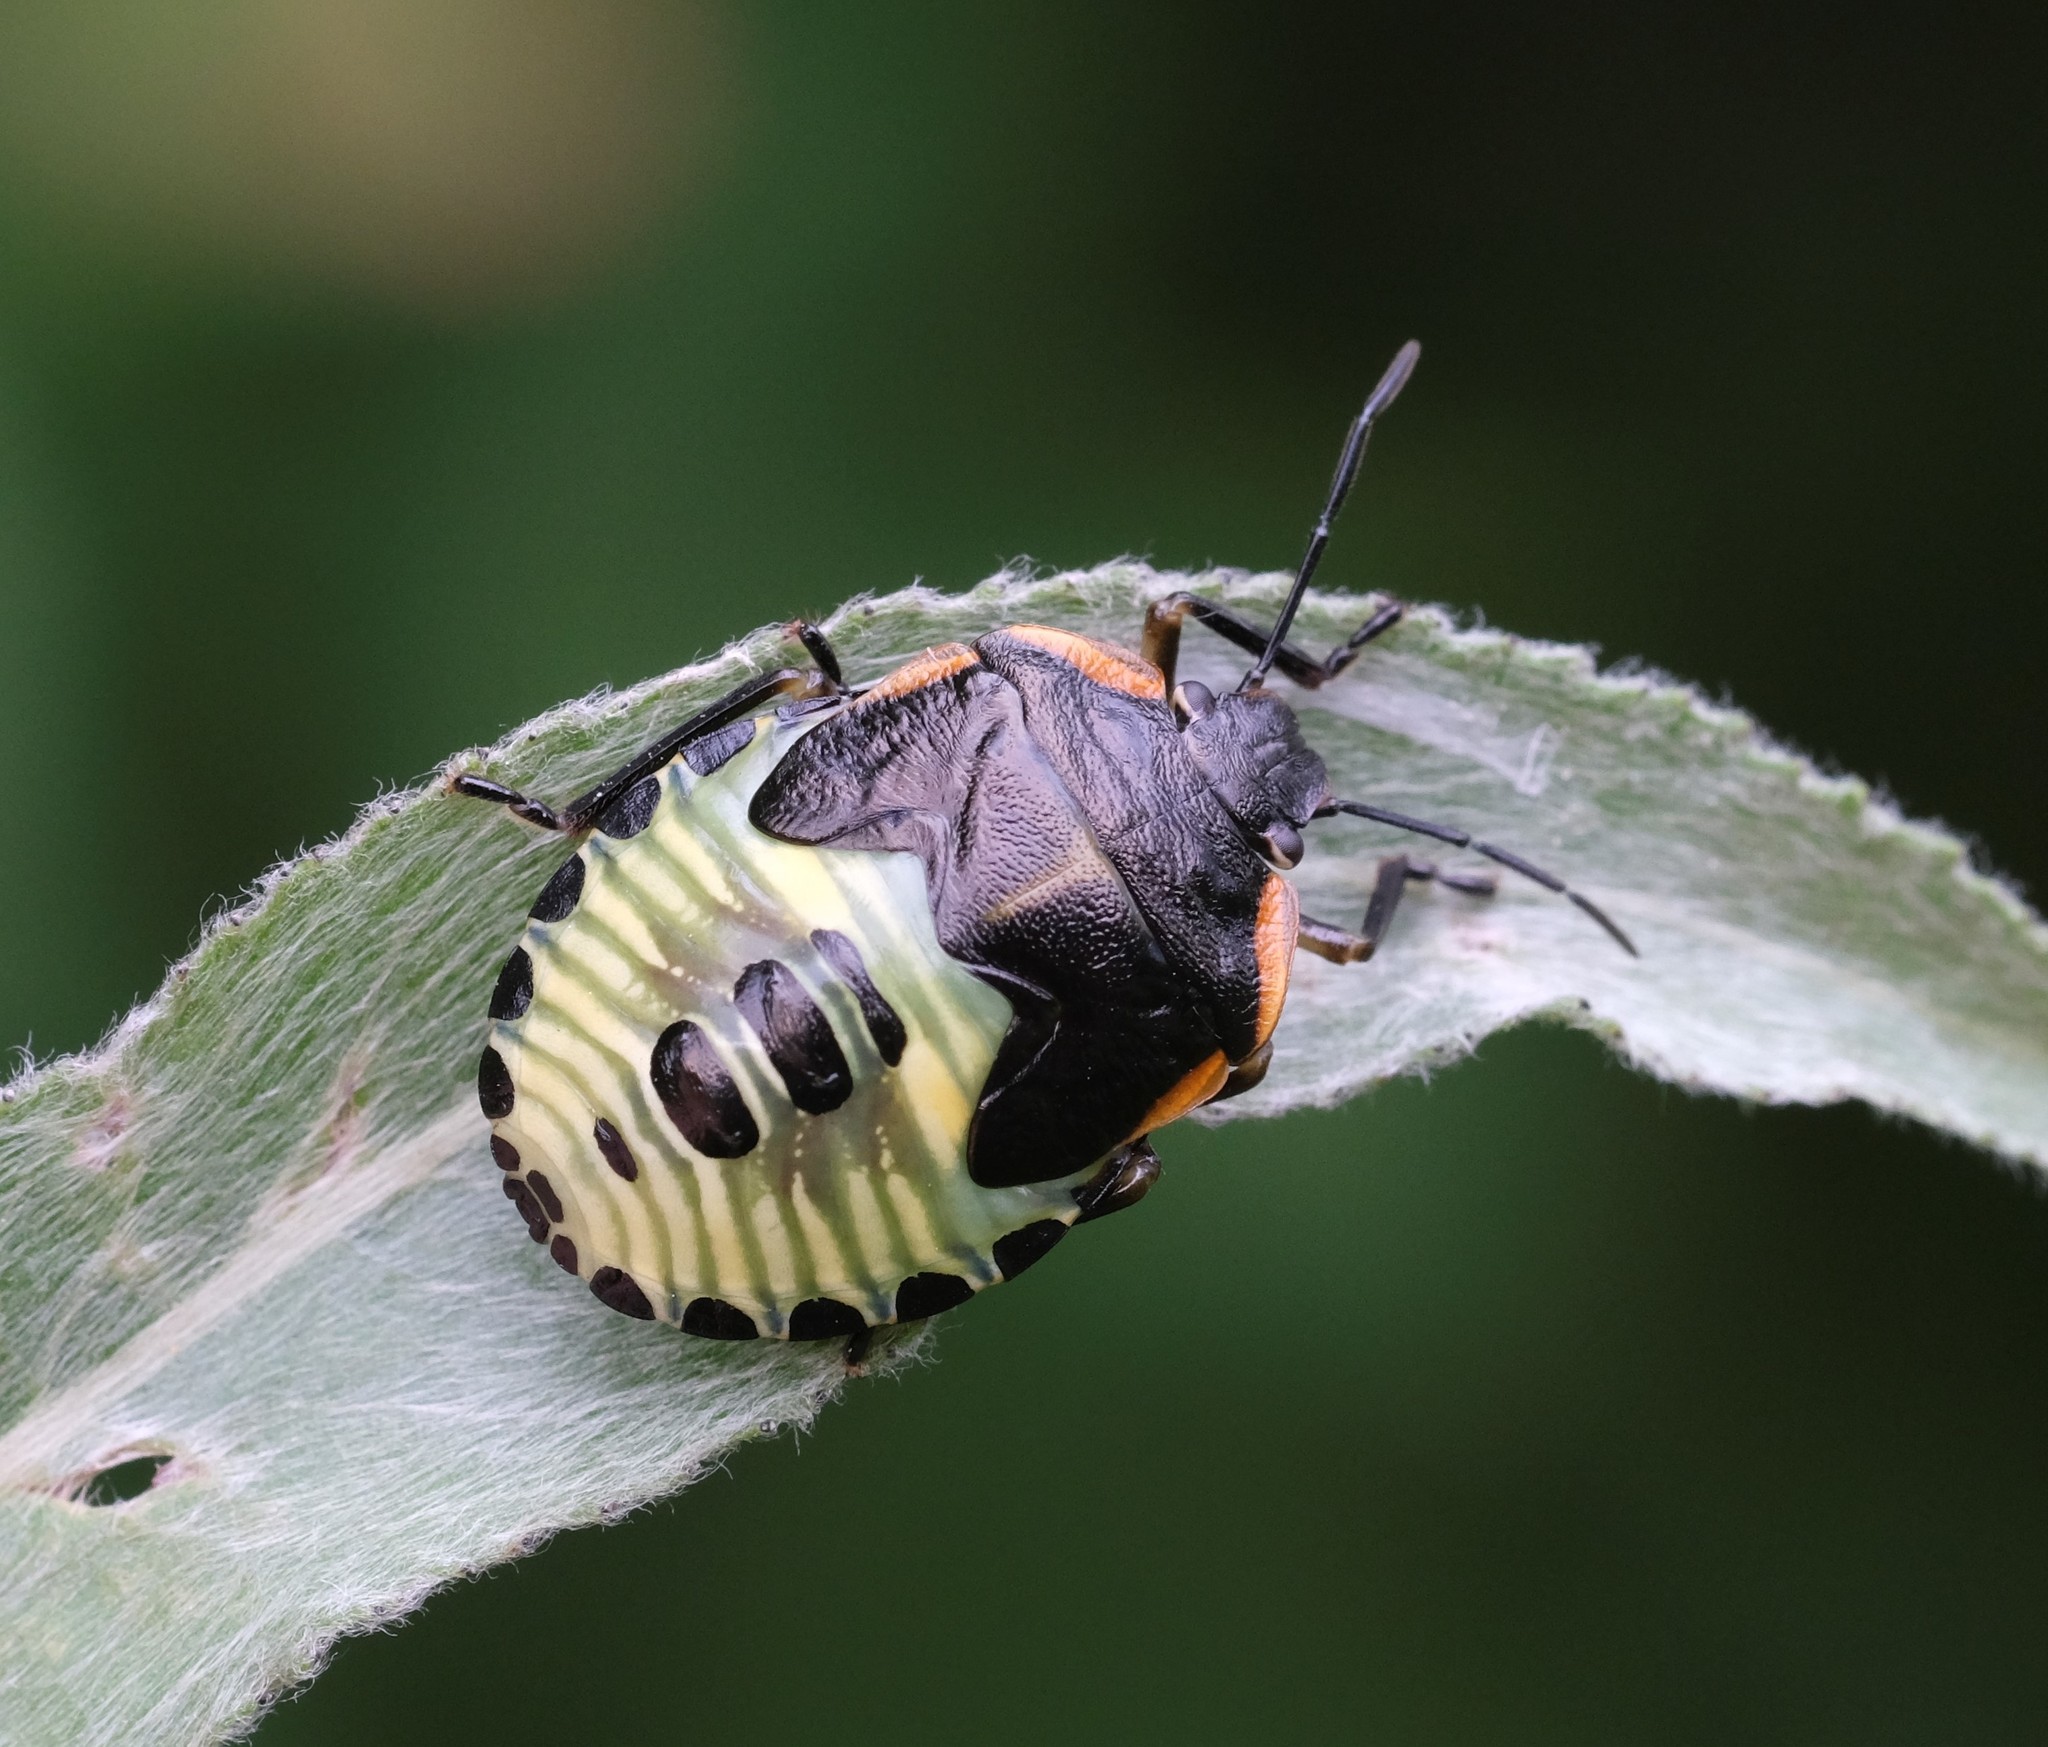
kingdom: Animalia
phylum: Arthropoda
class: Insecta
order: Hemiptera
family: Pentatomidae
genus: Chinavia
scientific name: Chinavia hilaris
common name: Green stink bug
